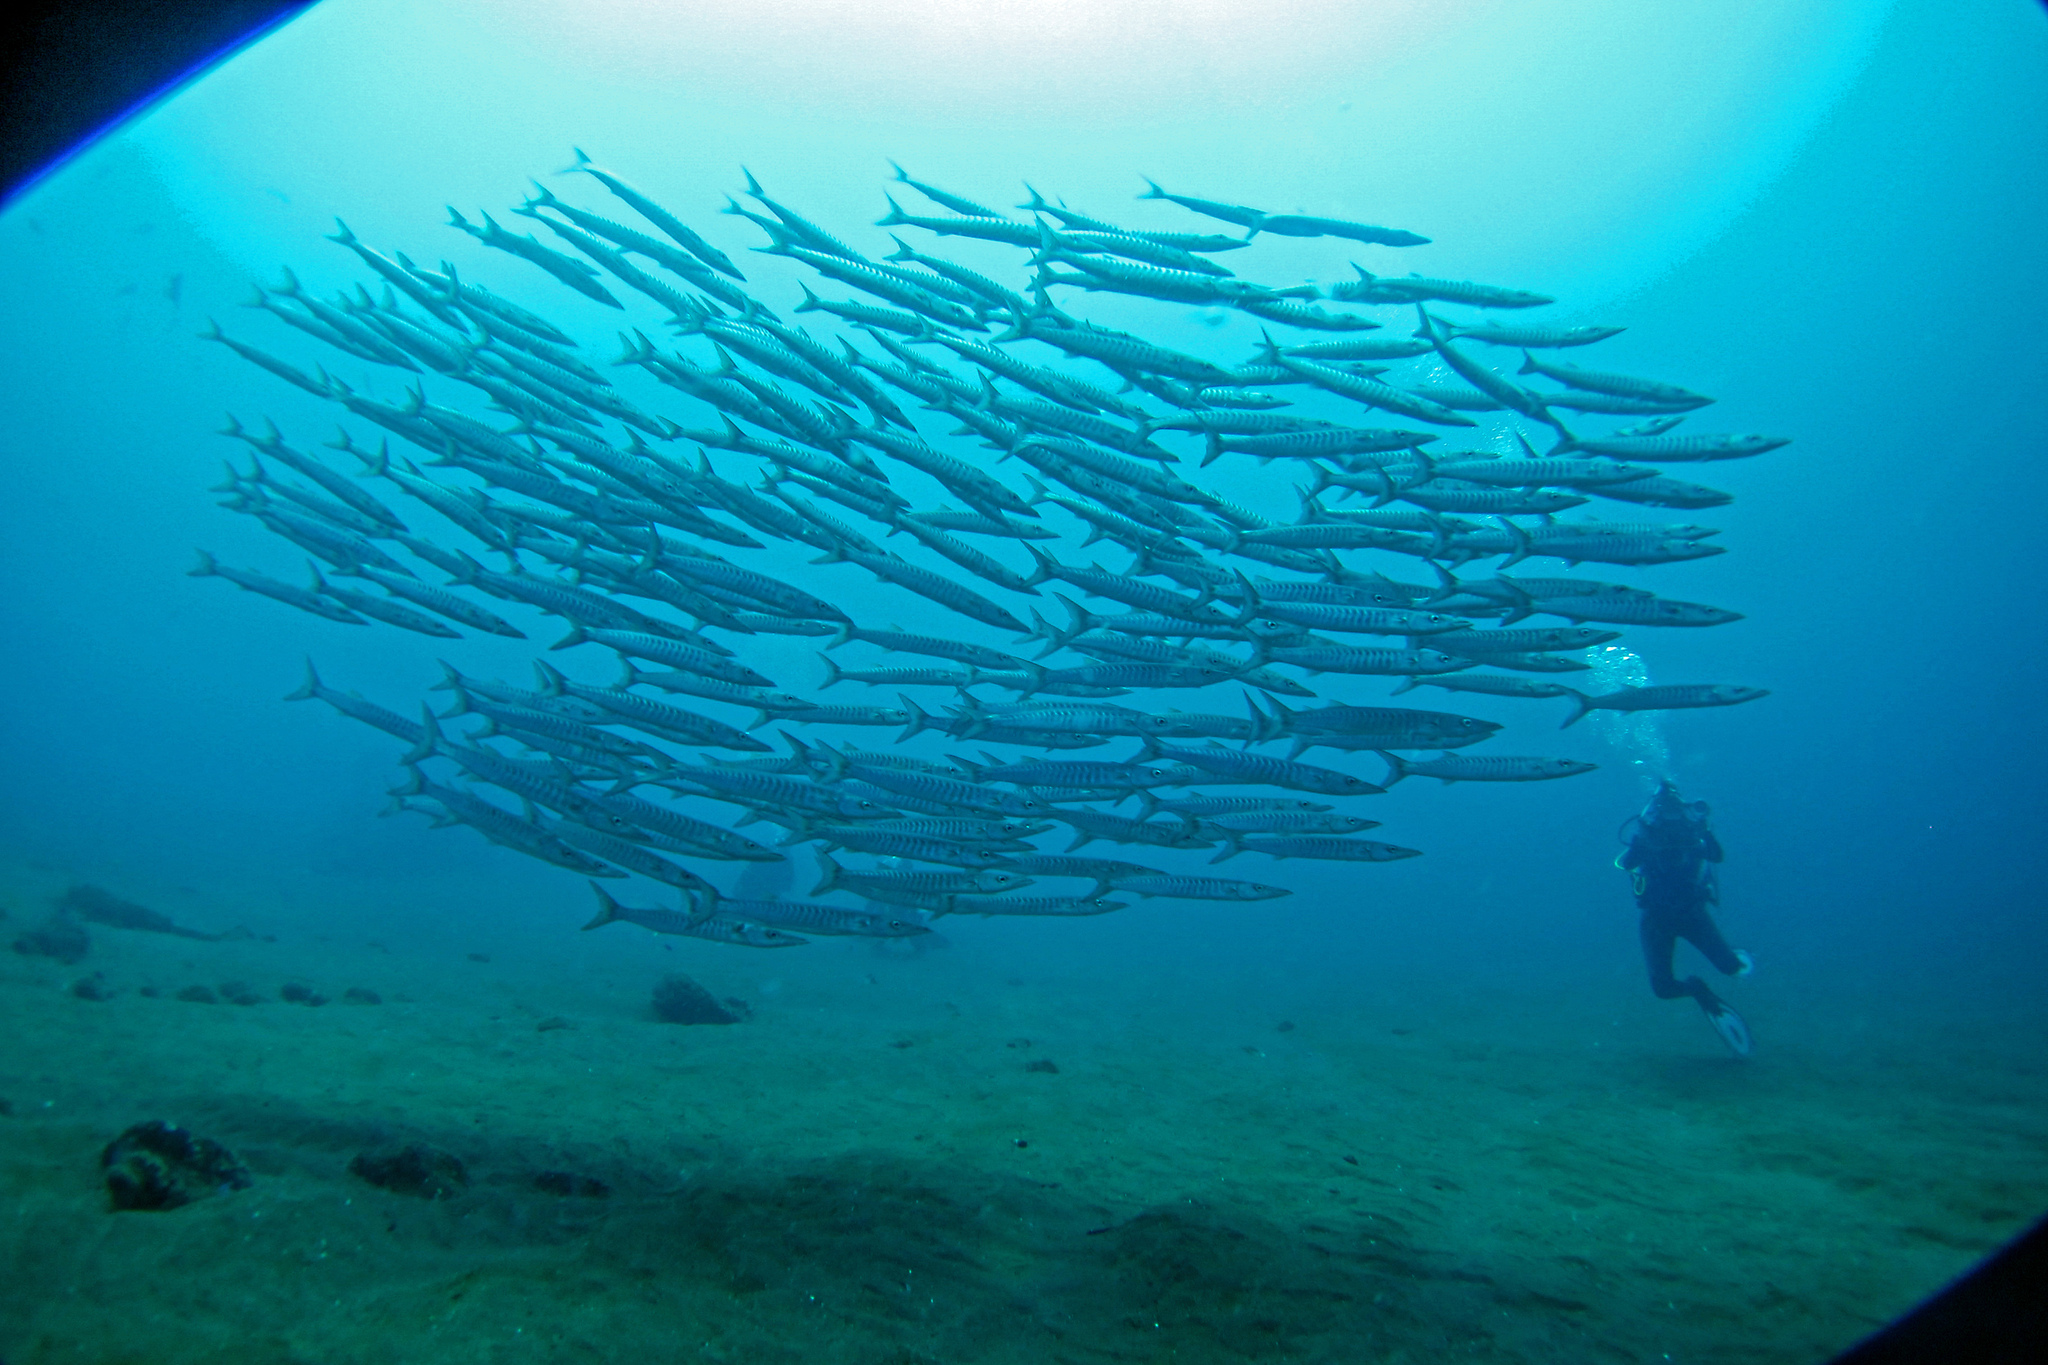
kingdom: Animalia
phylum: Chordata
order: Perciformes
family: Sphyraenidae
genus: Sphyraena
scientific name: Sphyraena qenie
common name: Blackfin barracuda
